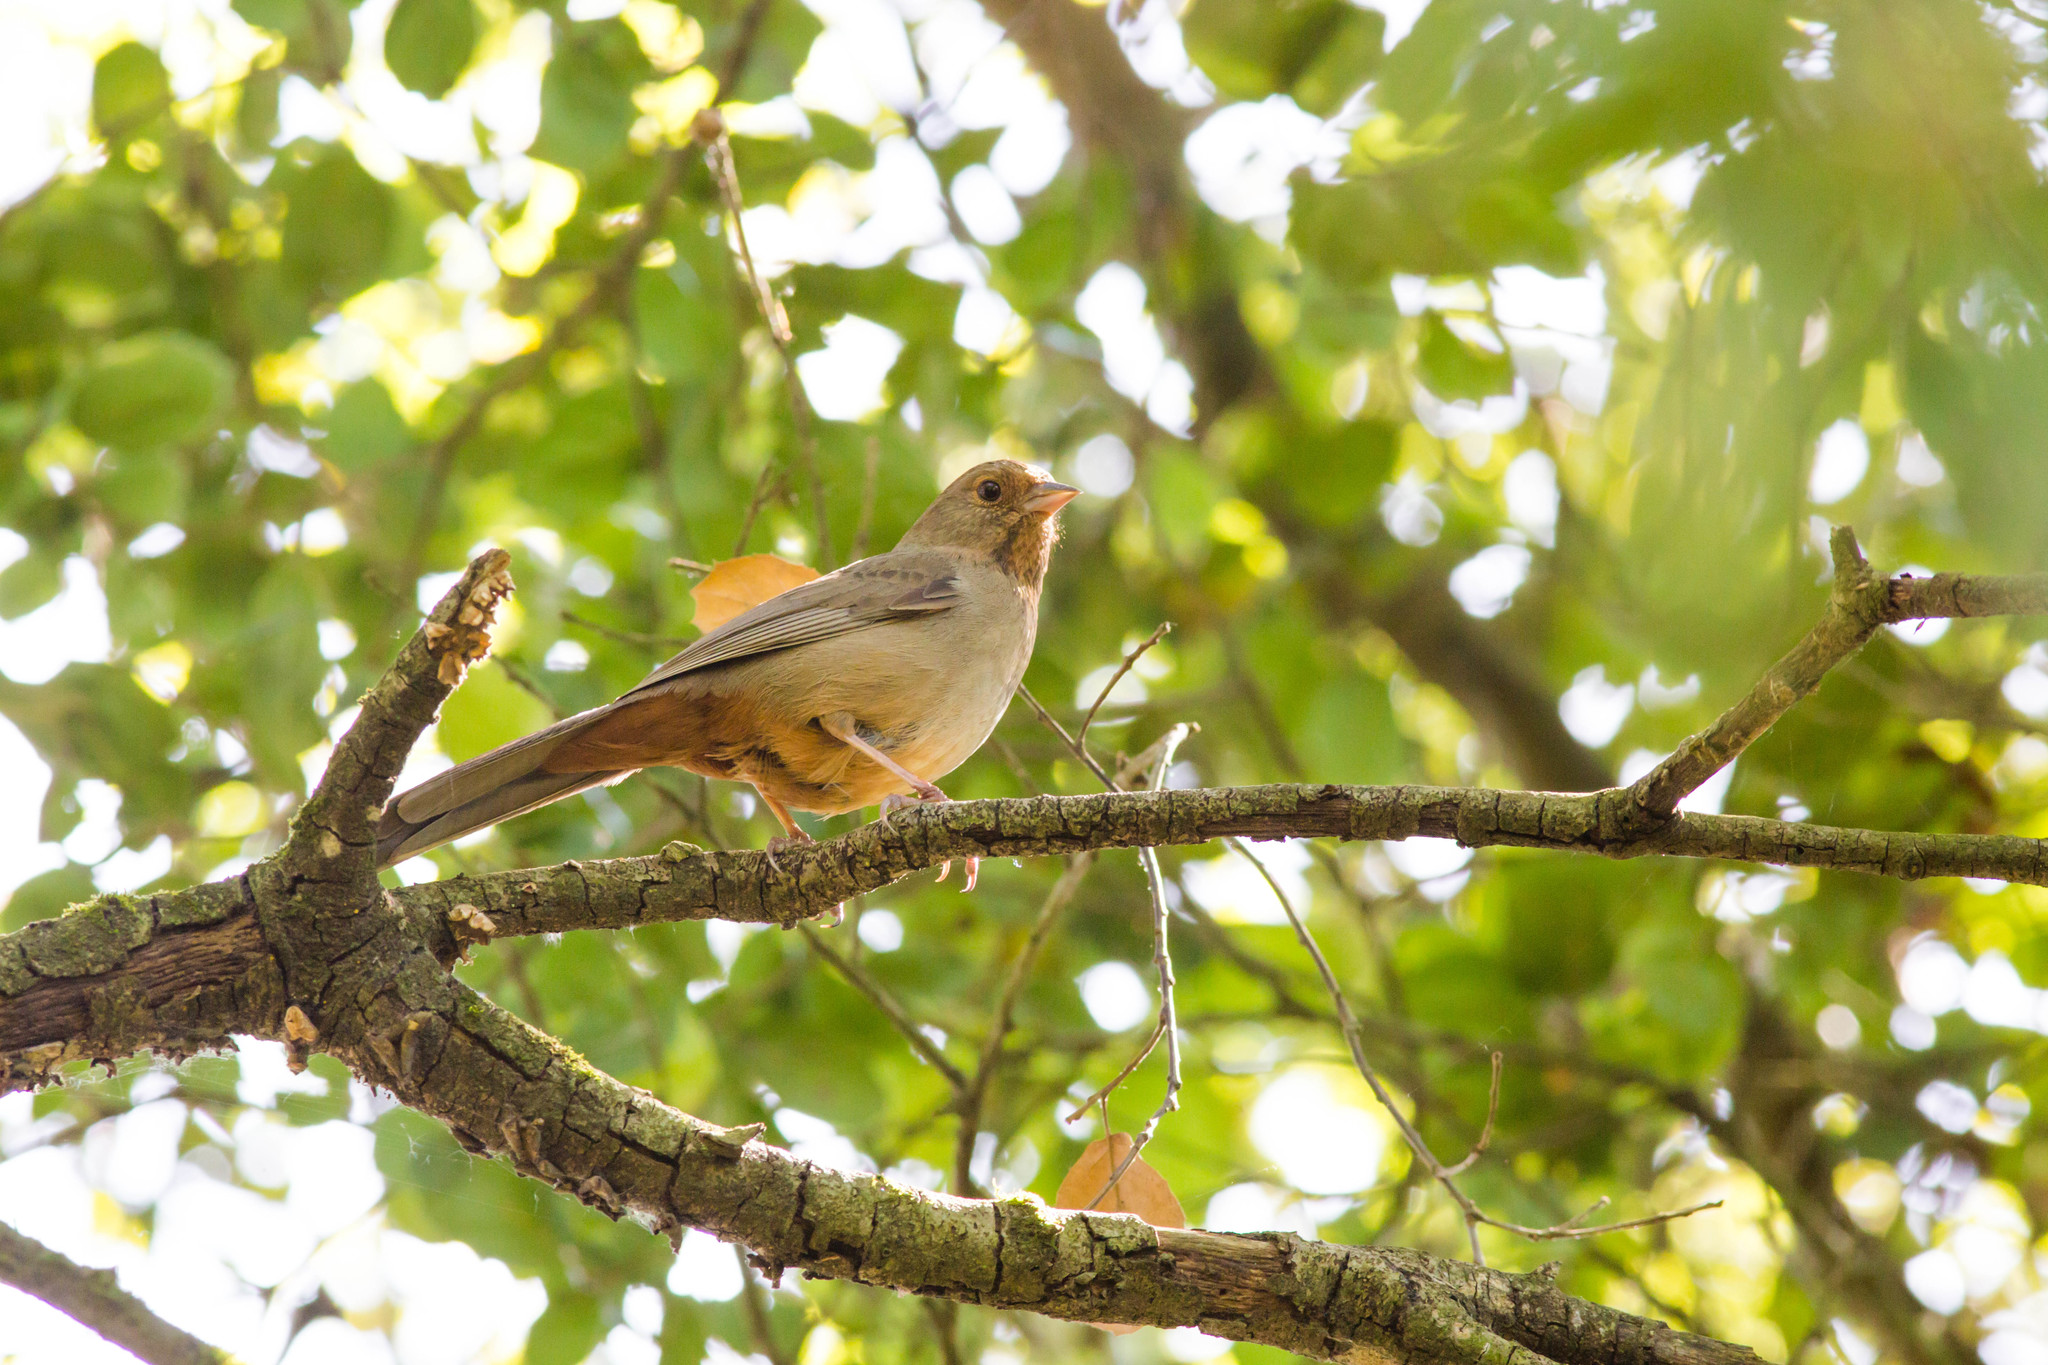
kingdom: Animalia
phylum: Chordata
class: Aves
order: Passeriformes
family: Passerellidae
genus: Melozone
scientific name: Melozone crissalis
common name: California towhee
